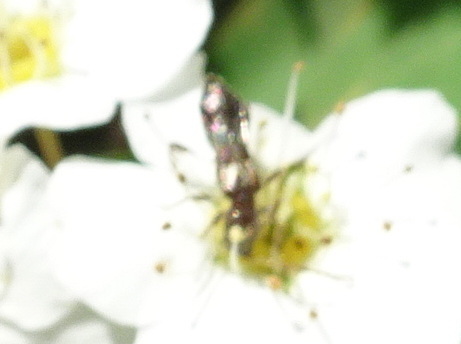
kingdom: Animalia
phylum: Arthropoda
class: Insecta
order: Coleoptera
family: Cerambycidae
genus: Molorchus
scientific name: Molorchus bimaculatus
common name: Bimaculate longhorn beetle
